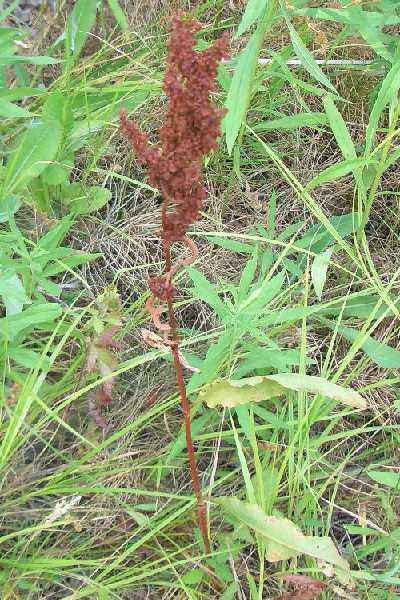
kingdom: Plantae
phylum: Tracheophyta
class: Magnoliopsida
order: Caryophyllales
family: Polygonaceae
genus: Rumex
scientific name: Rumex crispus
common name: Curled dock
